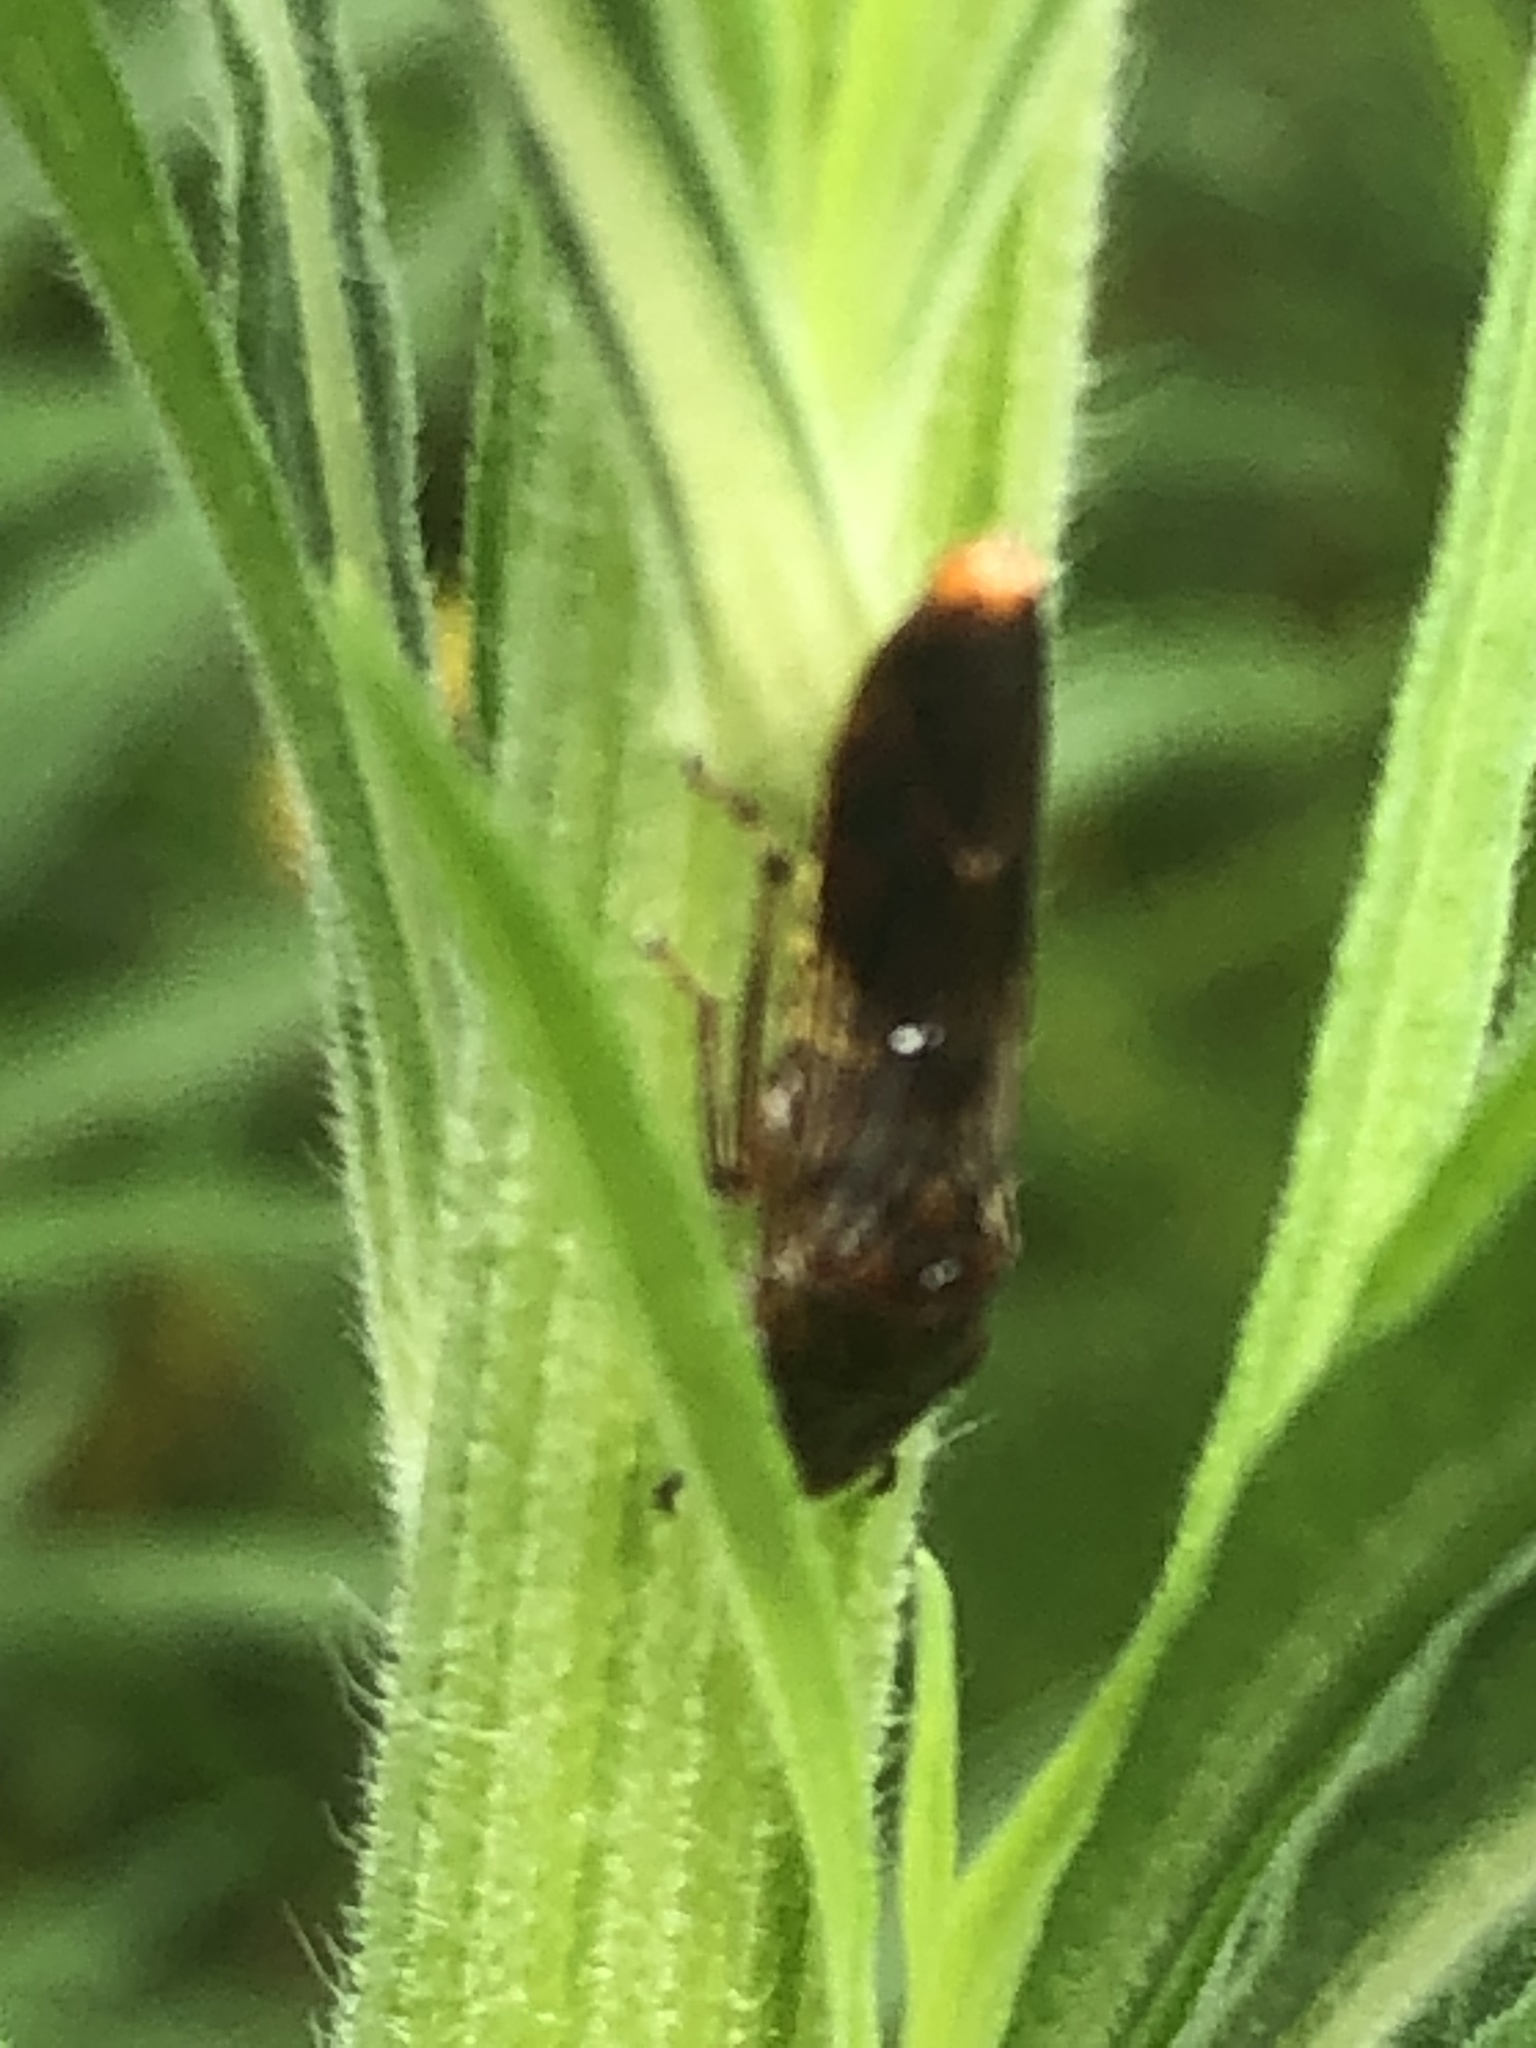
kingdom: Animalia
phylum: Arthropoda
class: Insecta
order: Hemiptera
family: Cicadellidae
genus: Homalodisca
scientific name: Homalodisca vitripennis
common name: Glassy-winged sharpshooter
